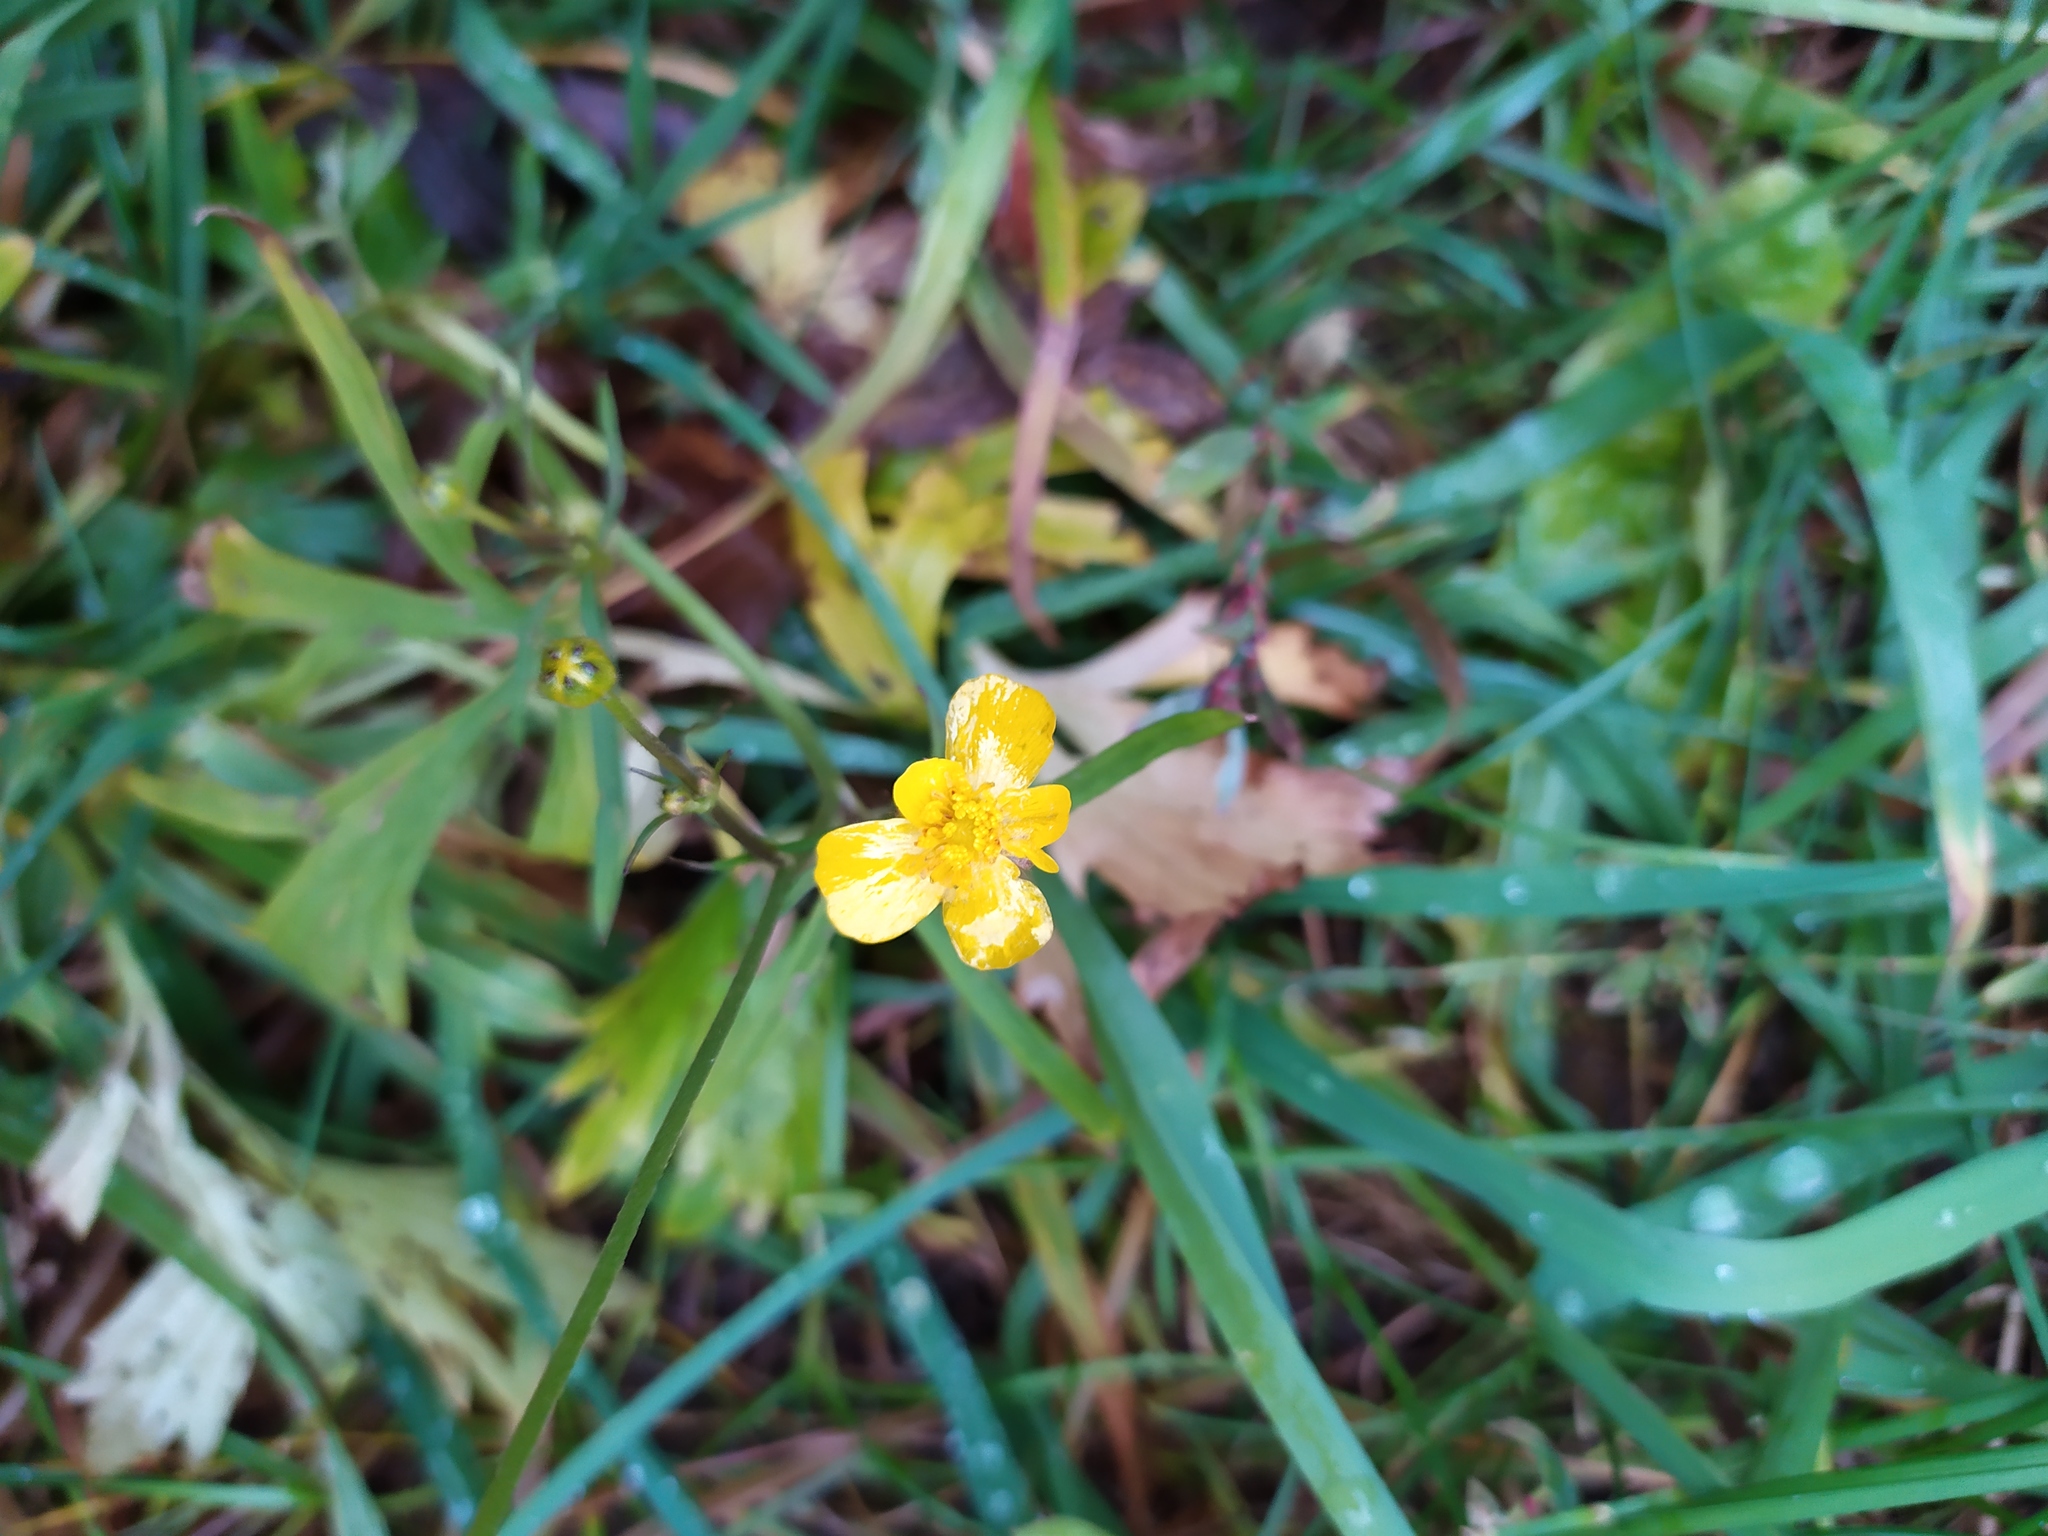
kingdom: Plantae
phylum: Tracheophyta
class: Magnoliopsida
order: Ranunculales
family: Ranunculaceae
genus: Ranunculus
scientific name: Ranunculus acris
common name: Meadow buttercup
